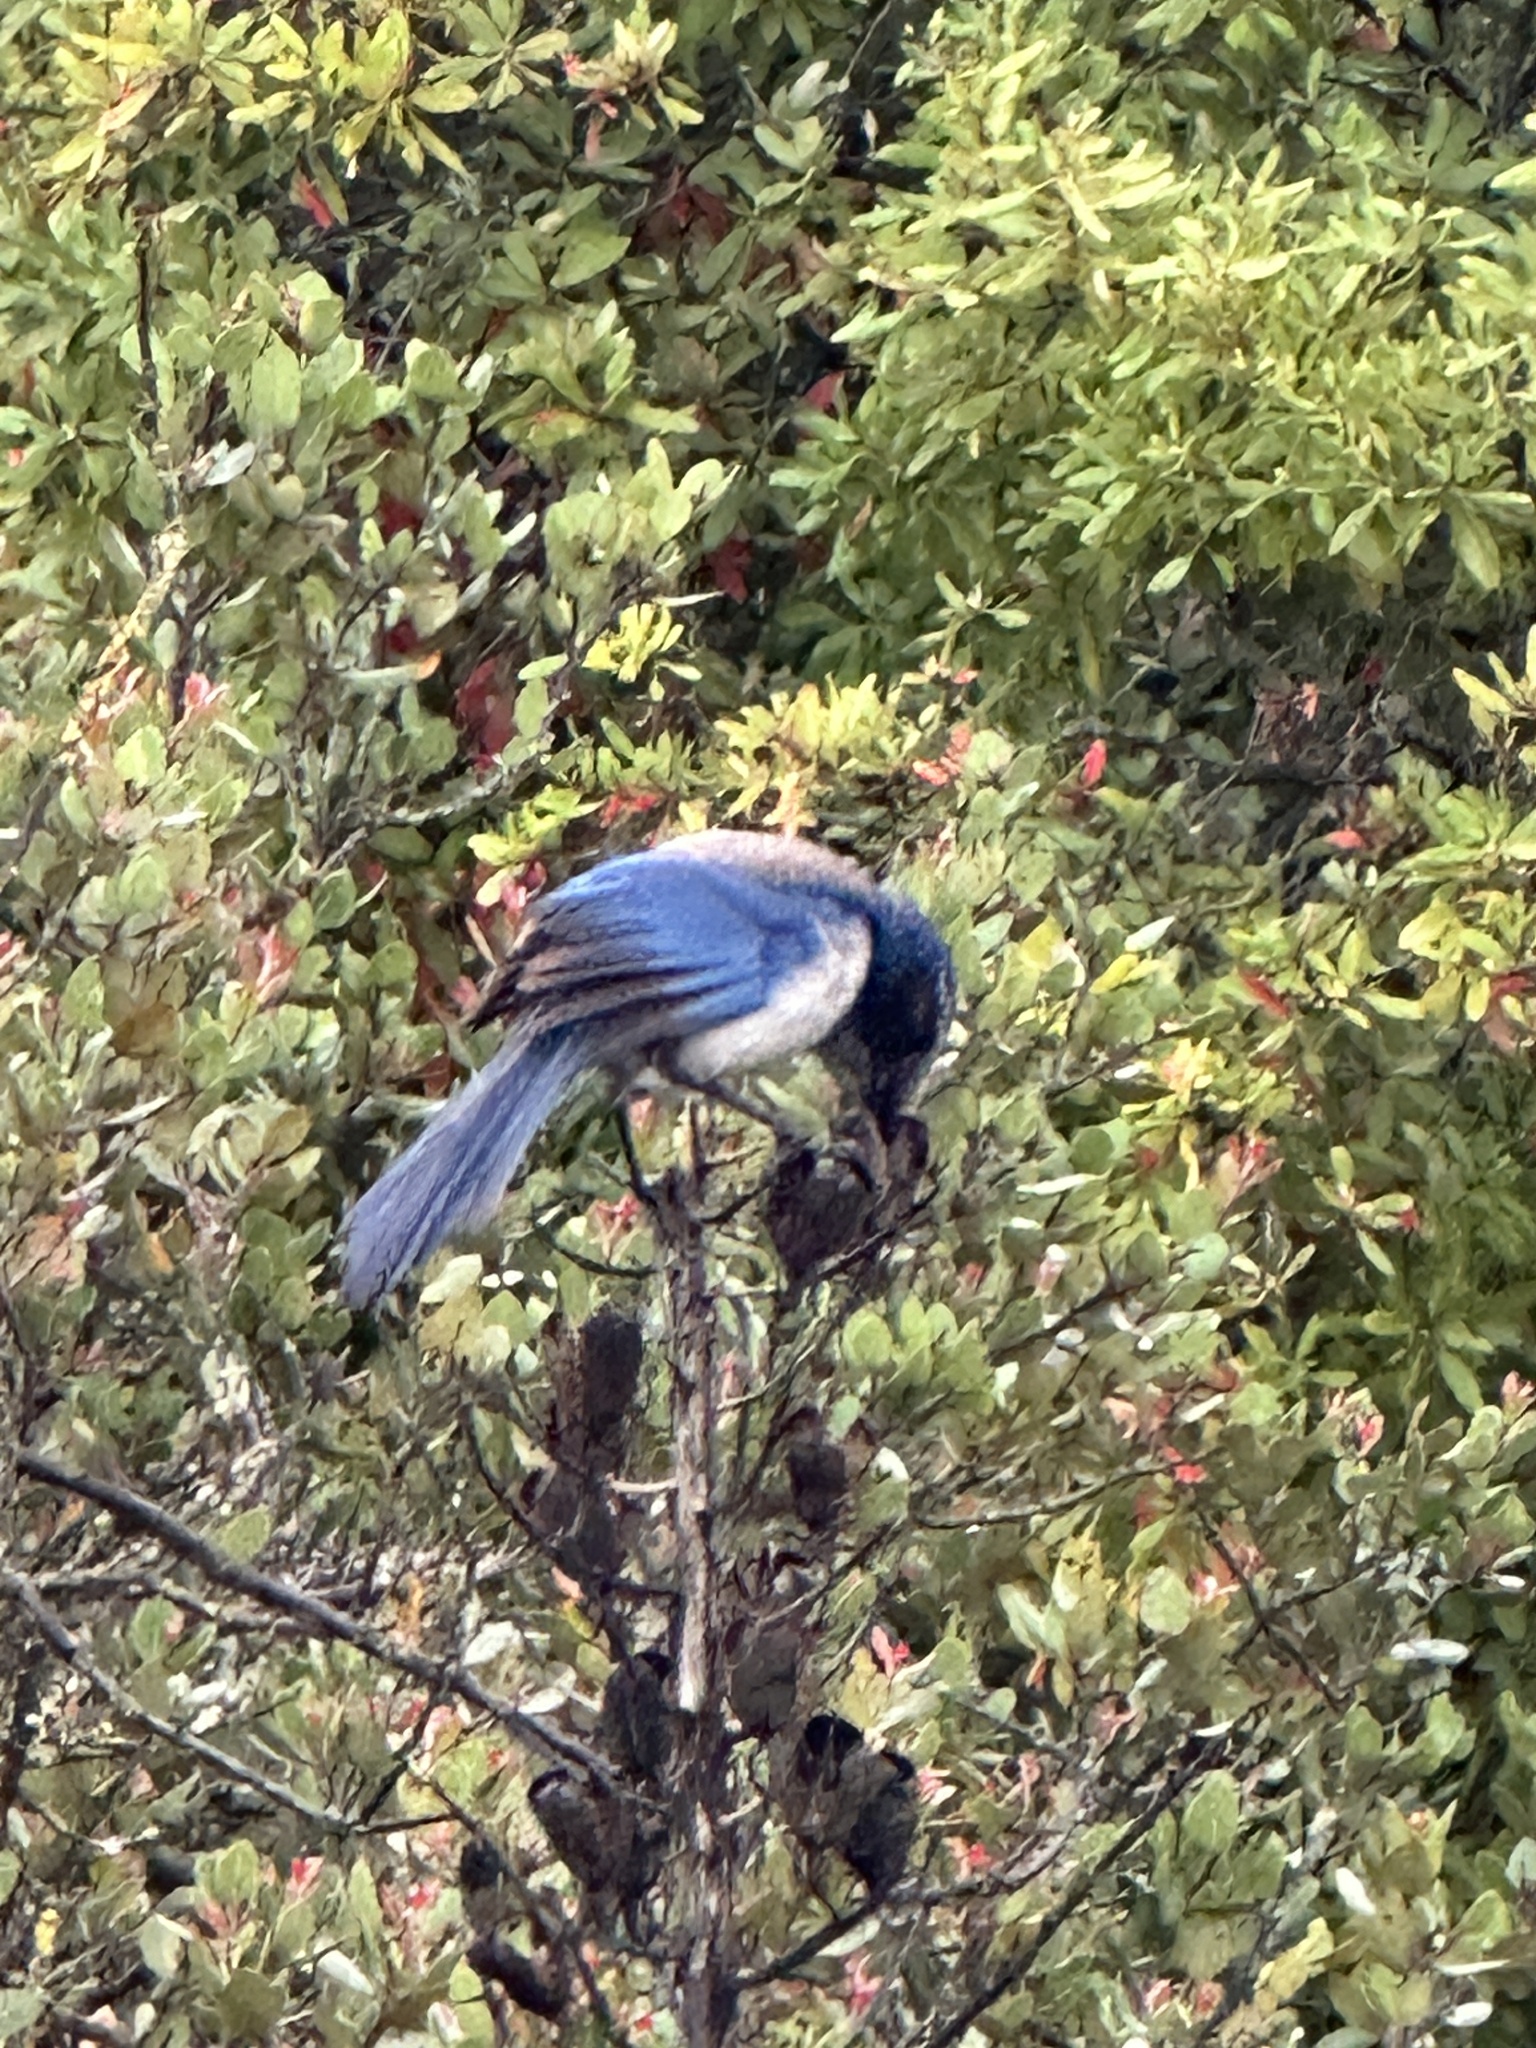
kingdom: Animalia
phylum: Chordata
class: Aves
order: Passeriformes
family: Corvidae
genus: Aphelocoma
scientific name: Aphelocoma californica
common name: California scrub-jay
